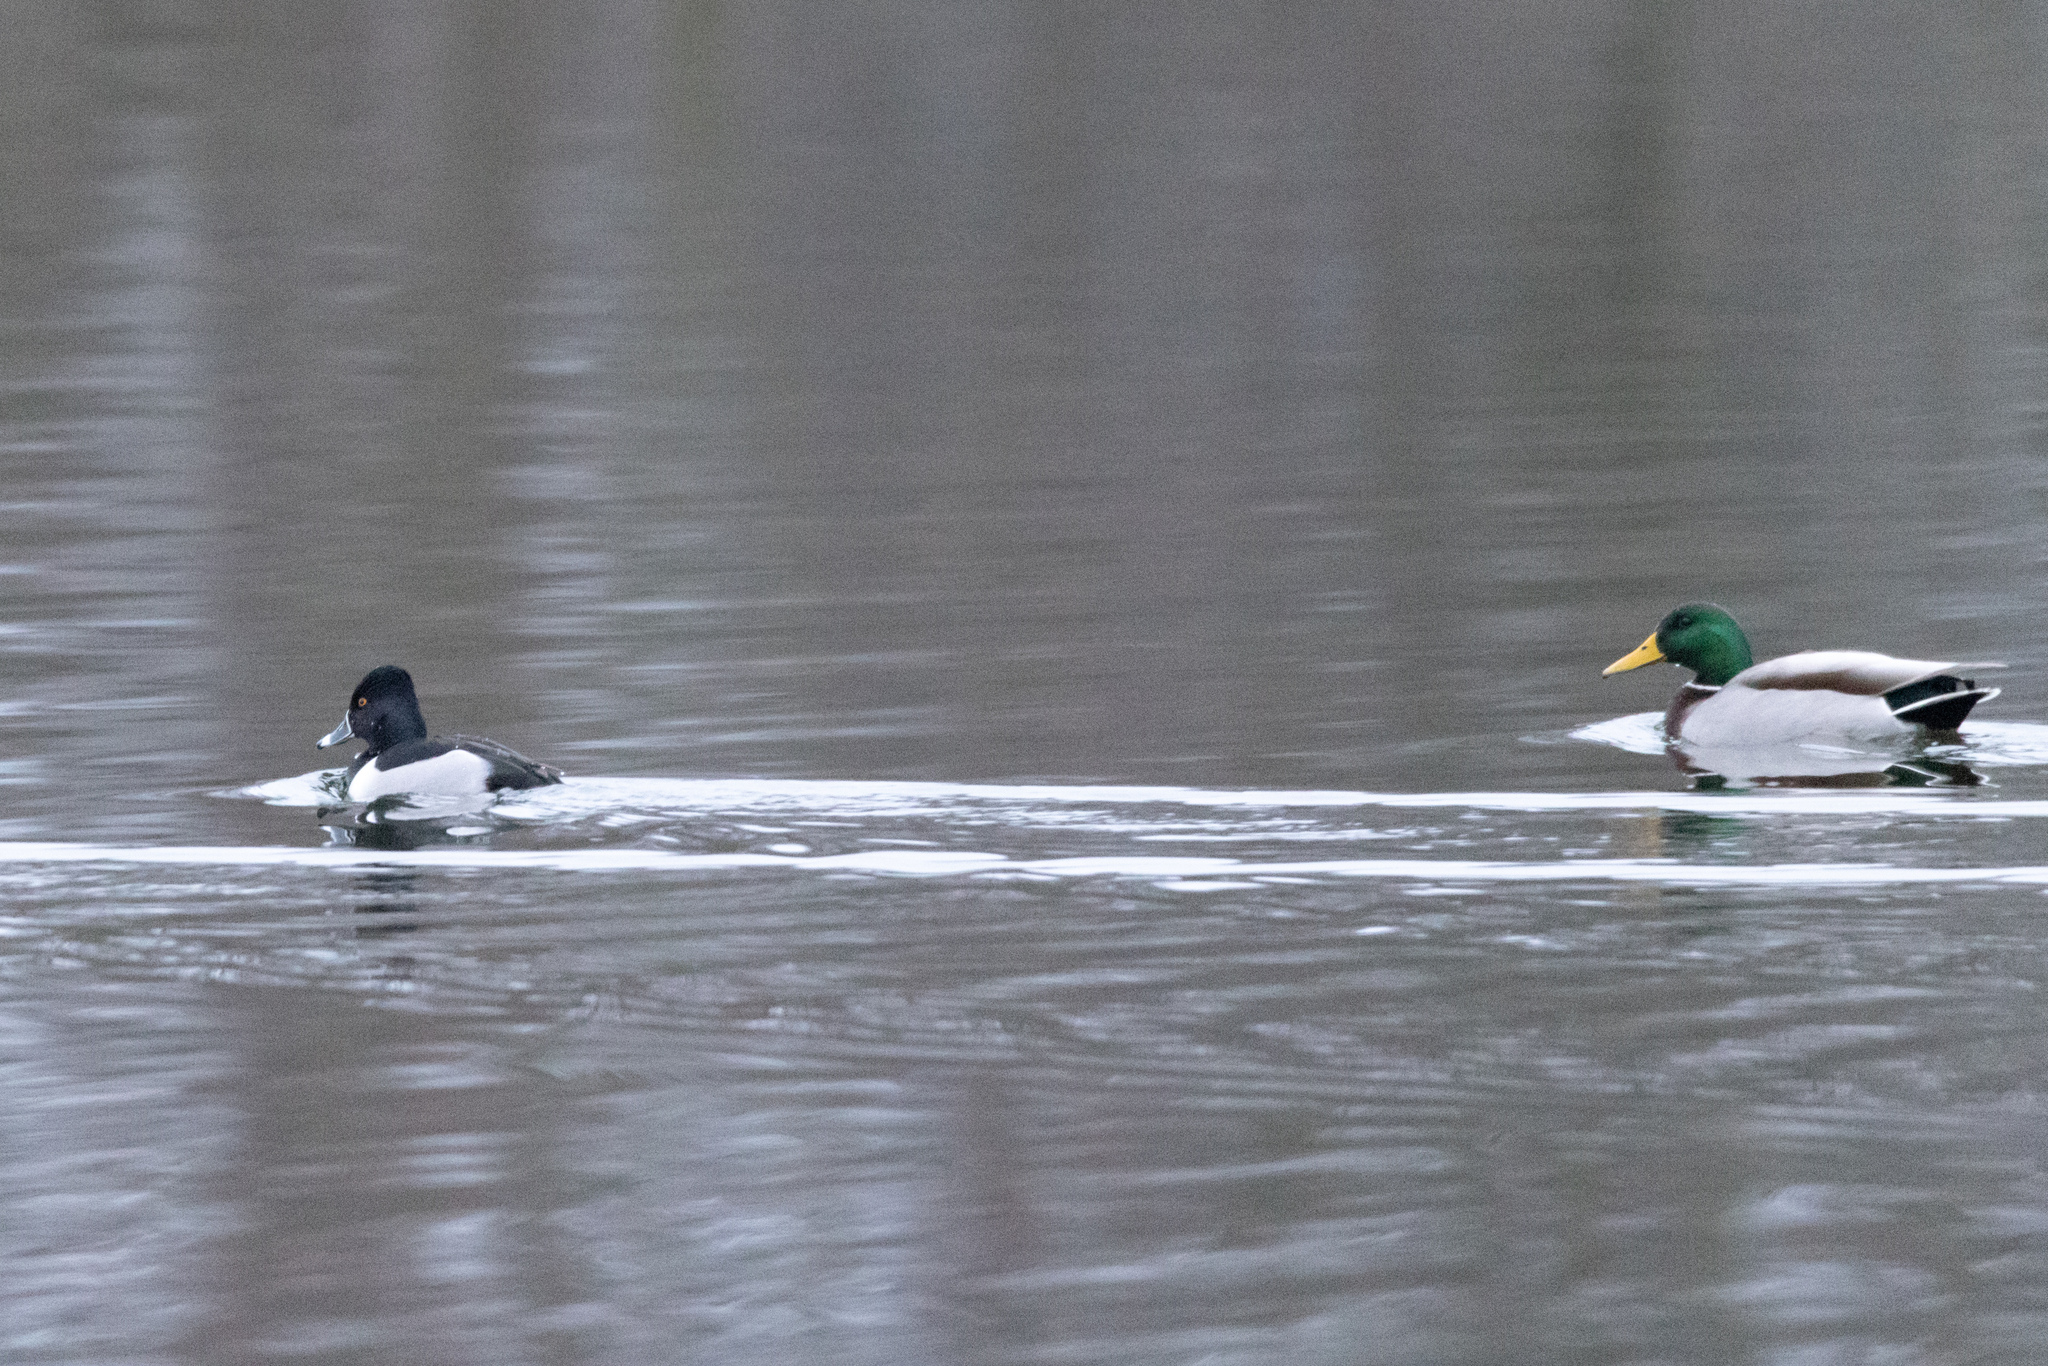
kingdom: Animalia
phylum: Chordata
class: Aves
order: Anseriformes
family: Anatidae
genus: Aythya
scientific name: Aythya collaris
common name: Ring-necked duck
